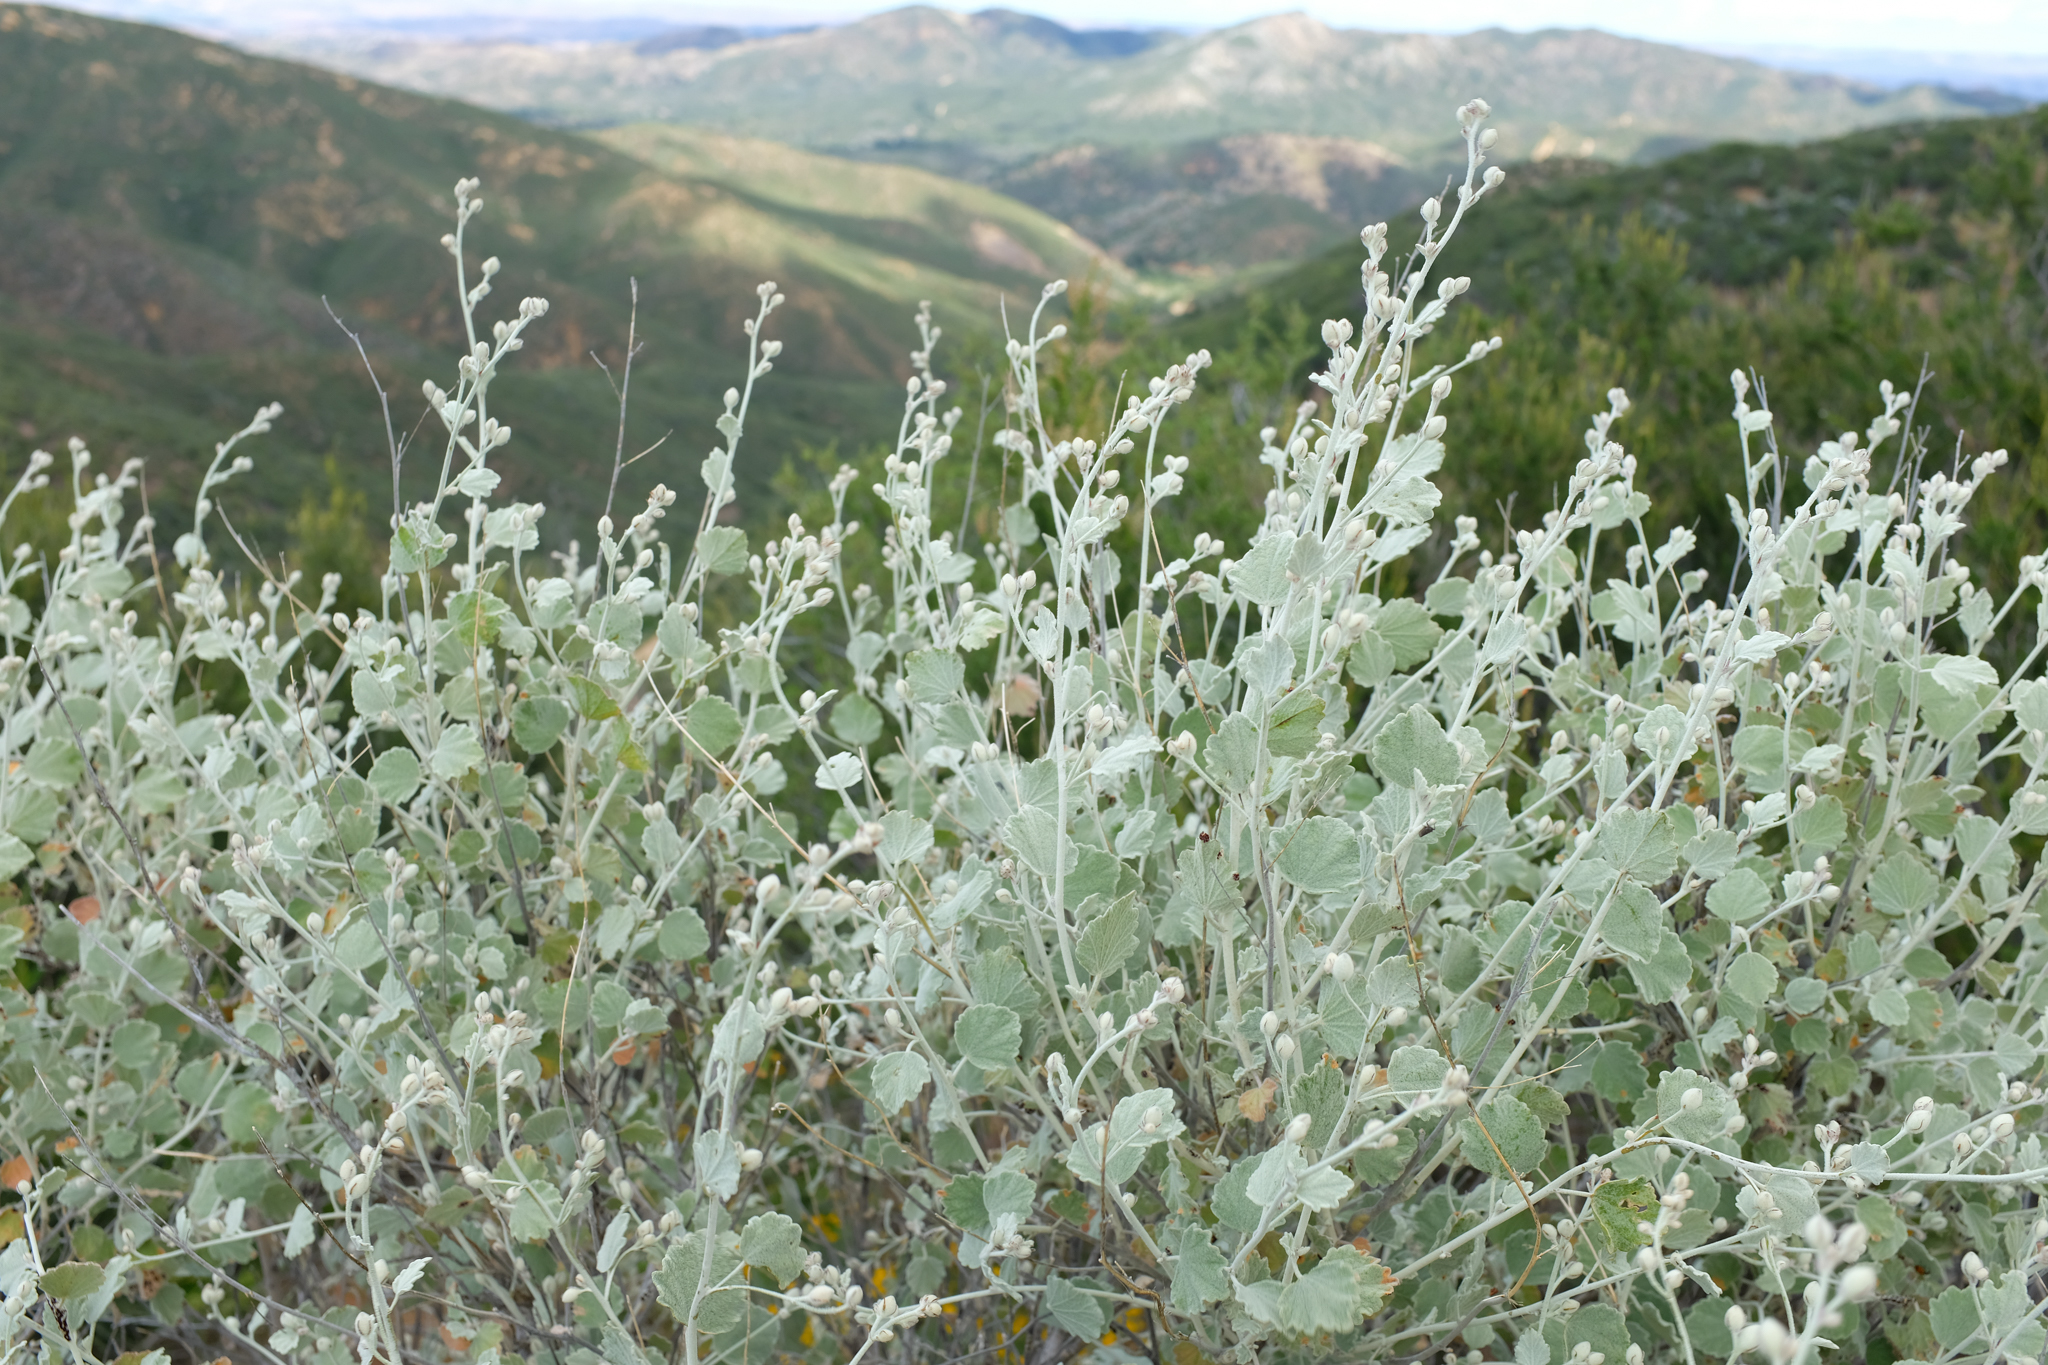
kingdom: Plantae
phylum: Tracheophyta
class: Magnoliopsida
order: Malvales
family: Malvaceae
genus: Malacothamnus
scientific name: Malacothamnus jonesii
